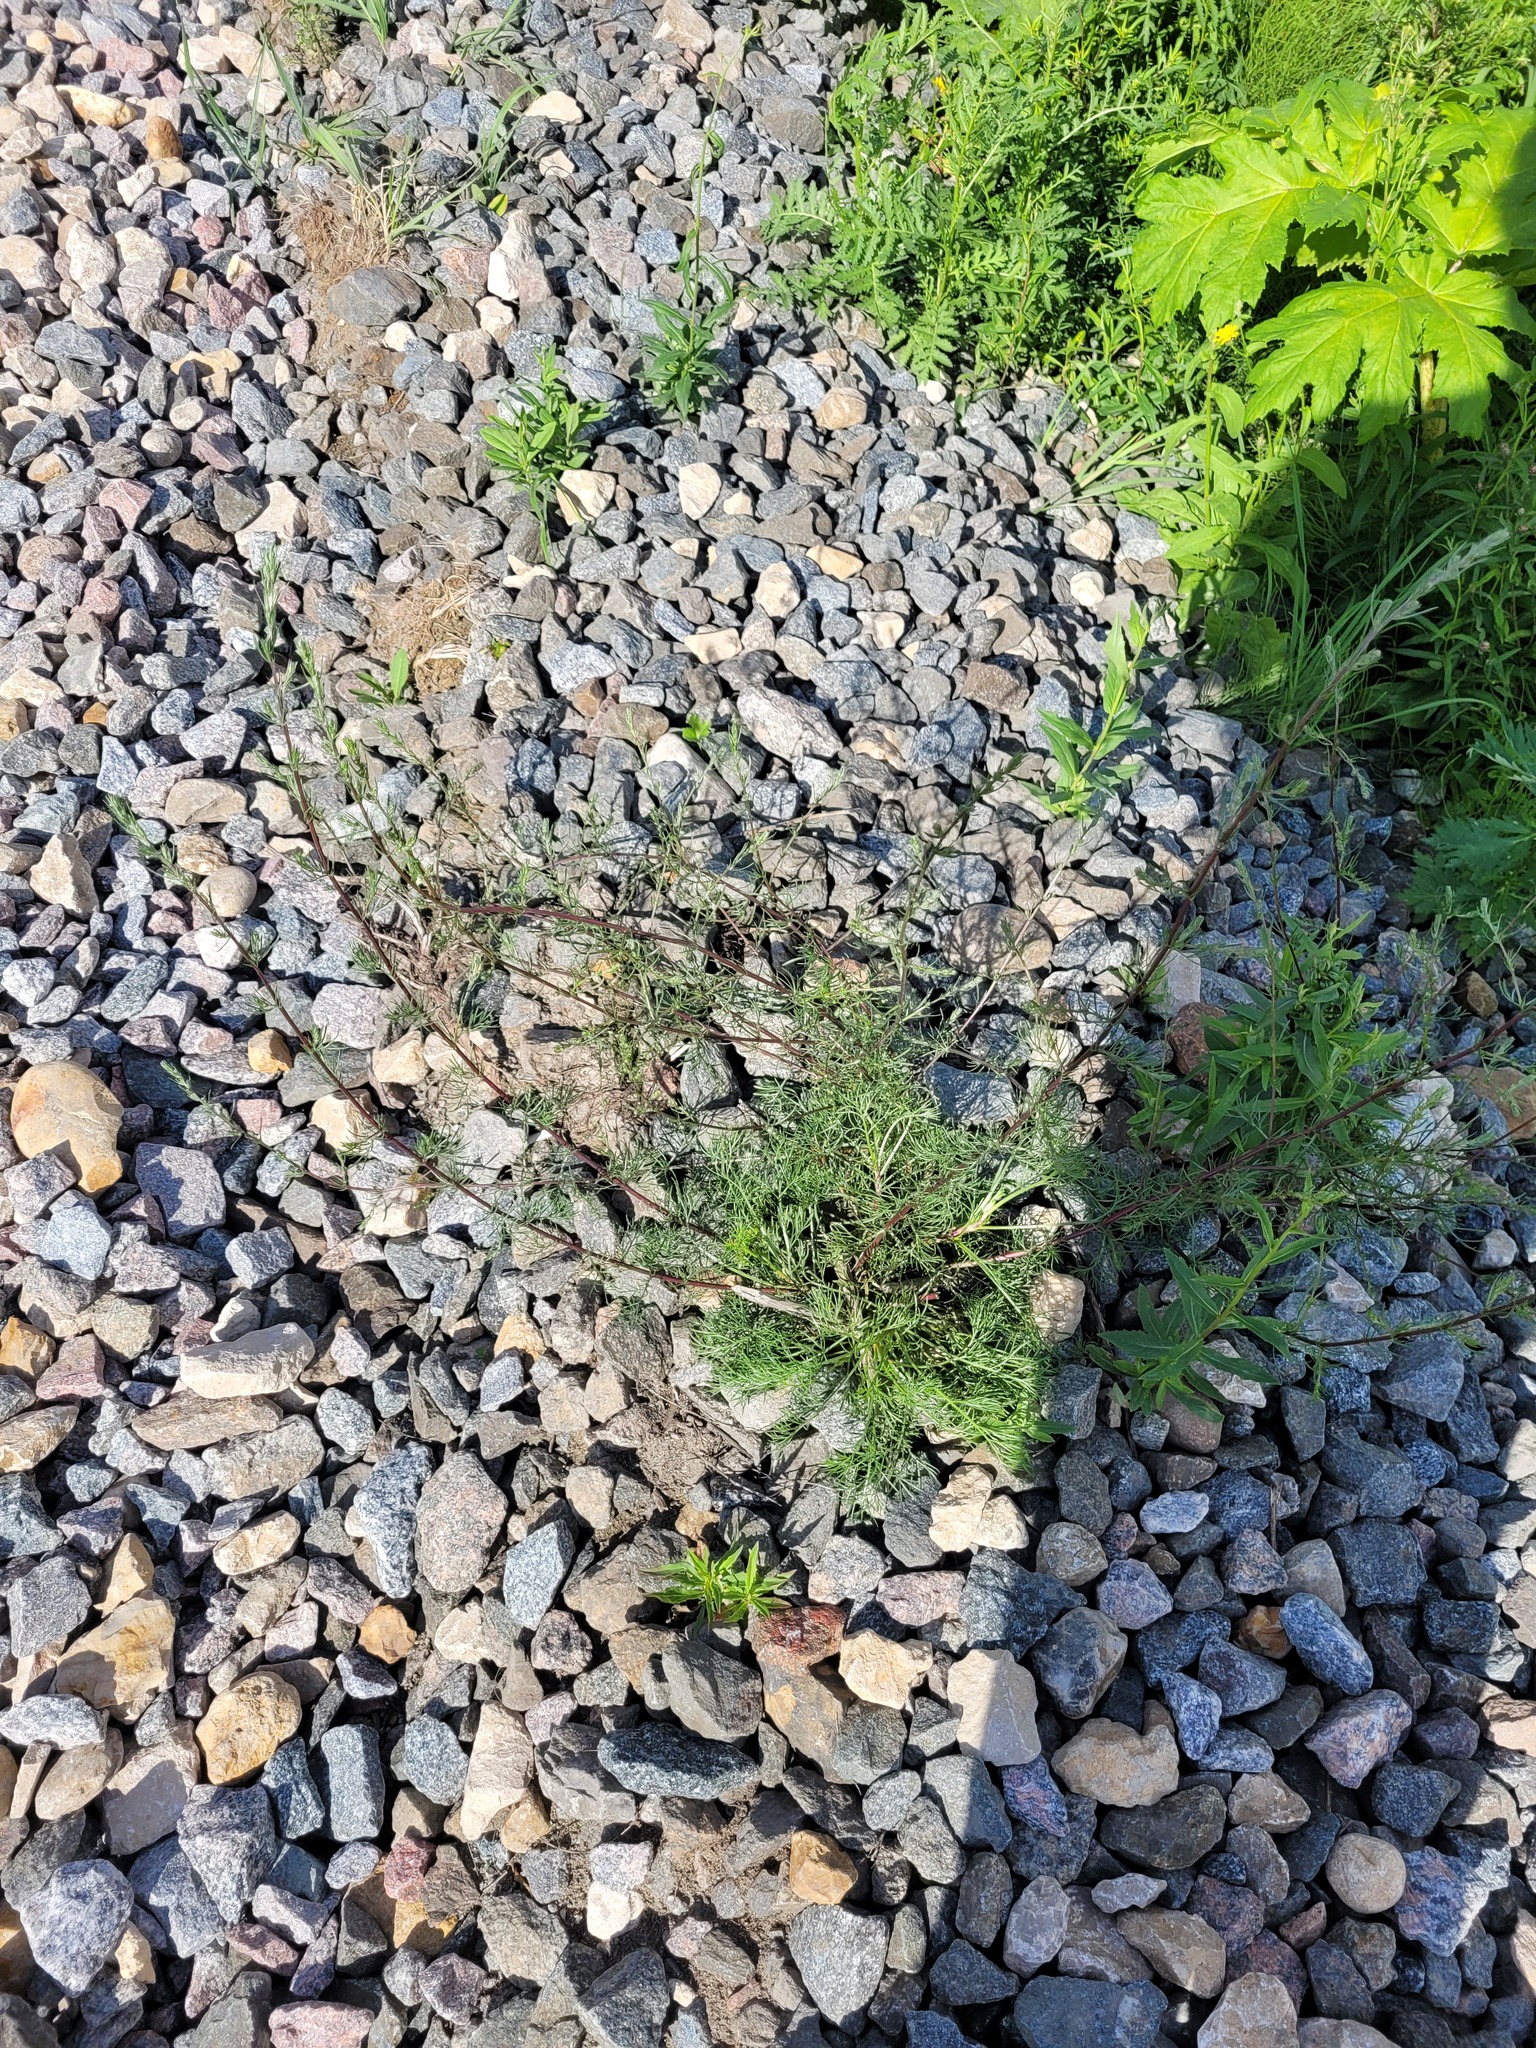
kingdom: Plantae
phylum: Tracheophyta
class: Magnoliopsida
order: Asterales
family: Asteraceae
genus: Artemisia
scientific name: Artemisia campestris
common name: Field wormwood
